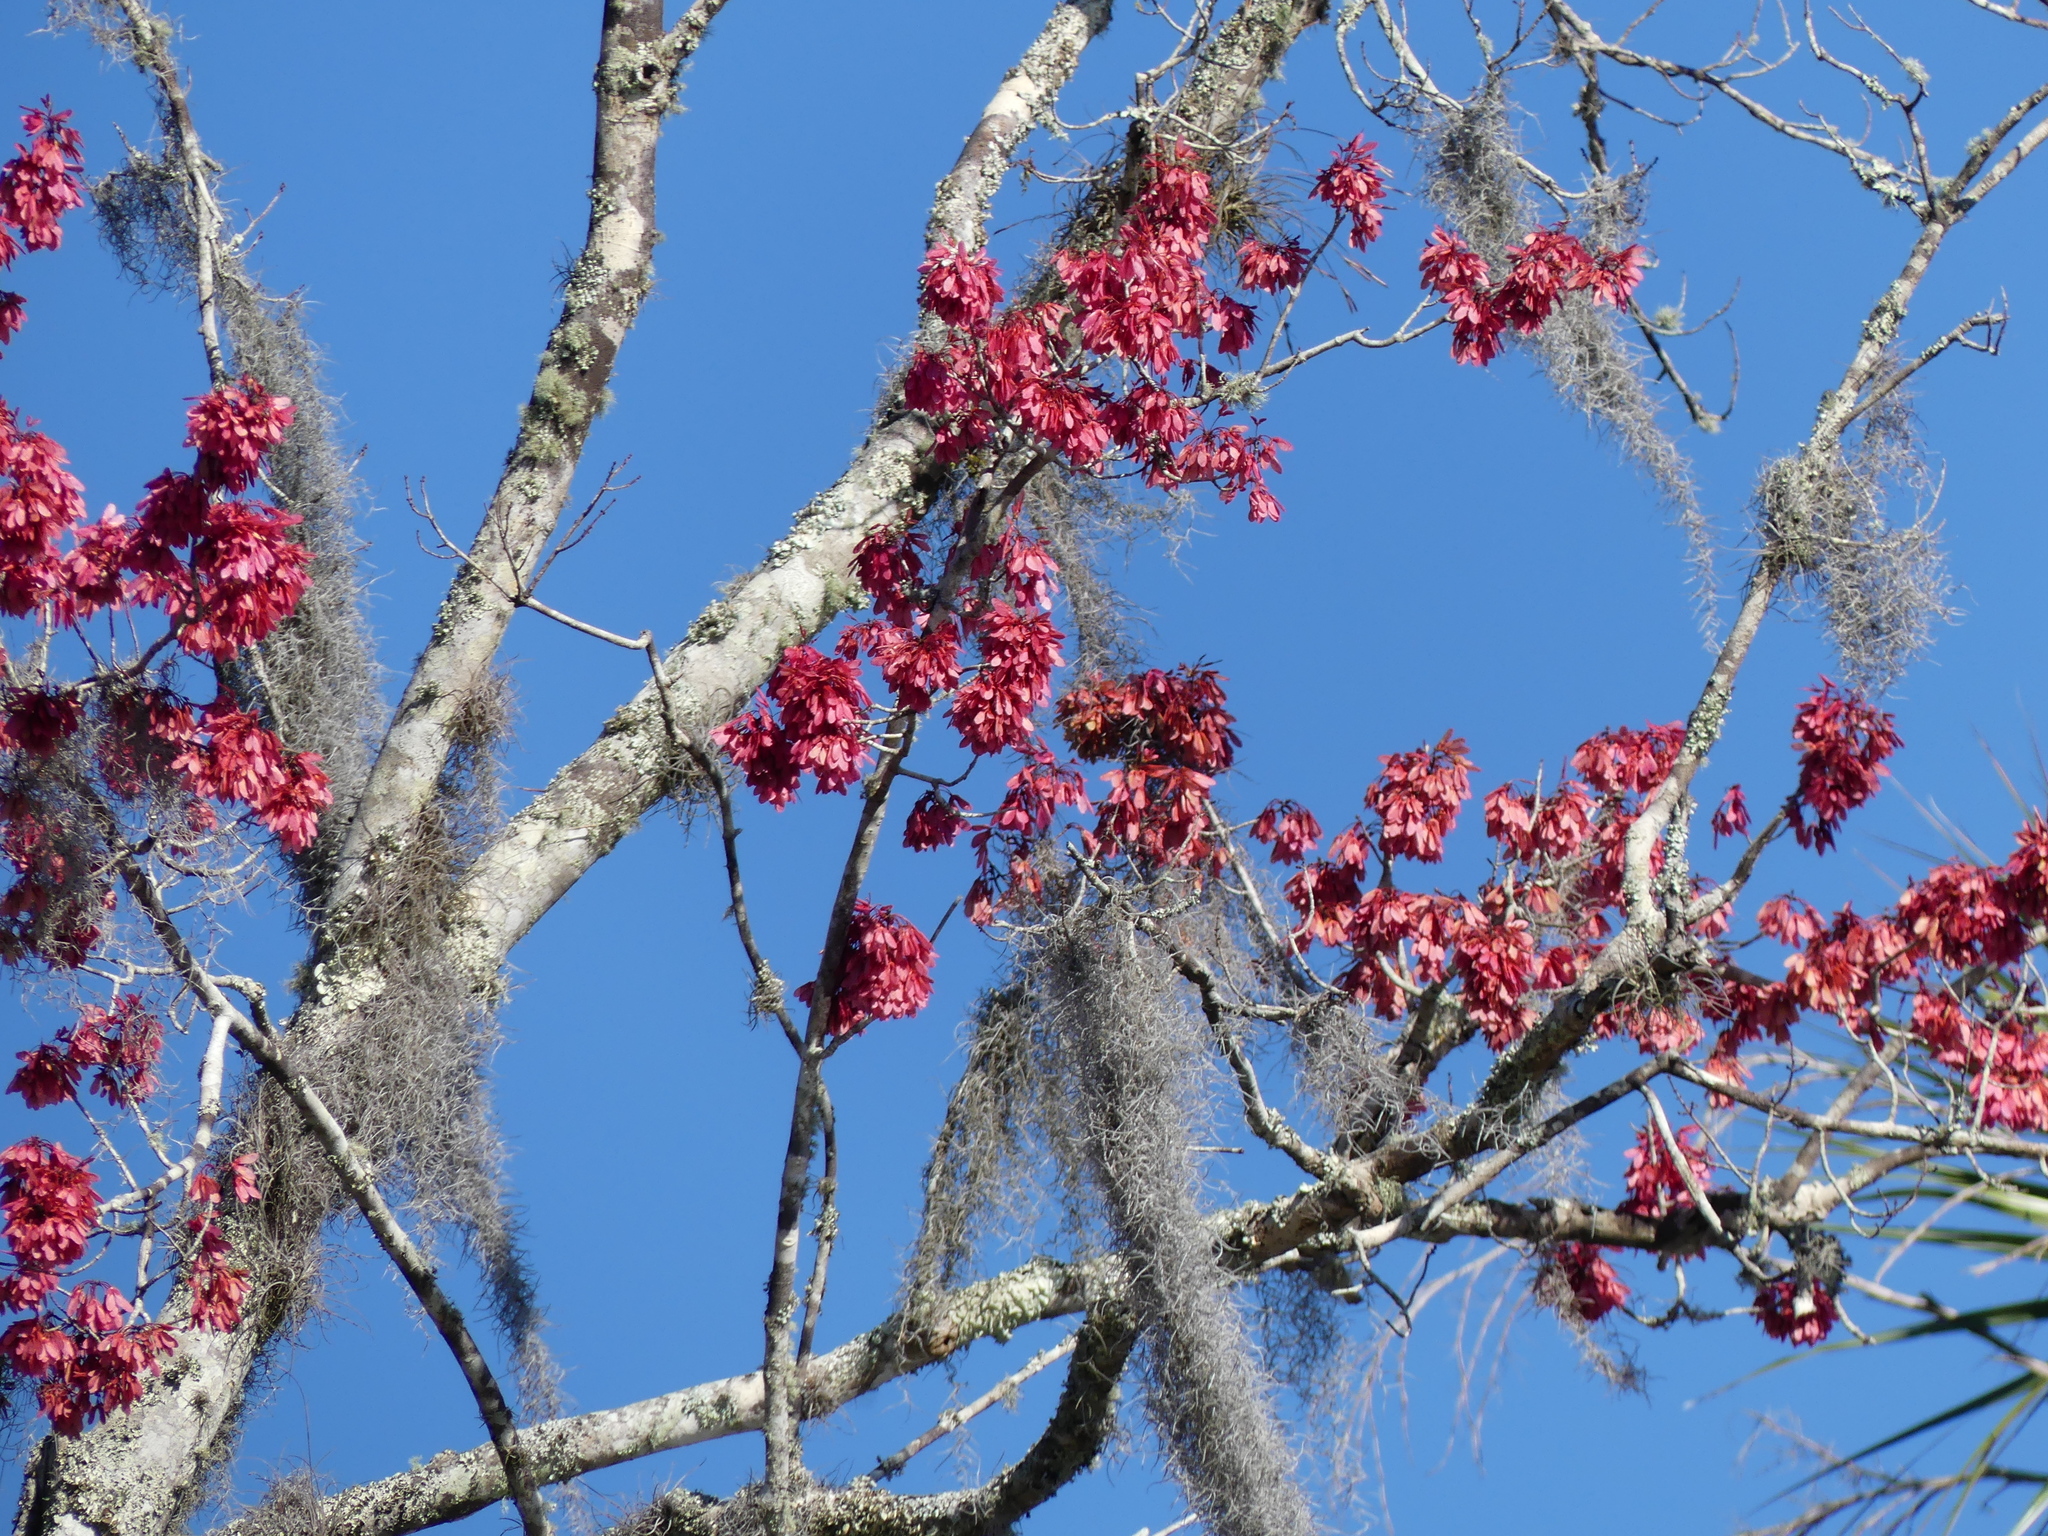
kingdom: Plantae
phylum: Tracheophyta
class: Magnoliopsida
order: Sapindales
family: Sapindaceae
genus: Acer
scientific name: Acer rubrum
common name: Red maple
